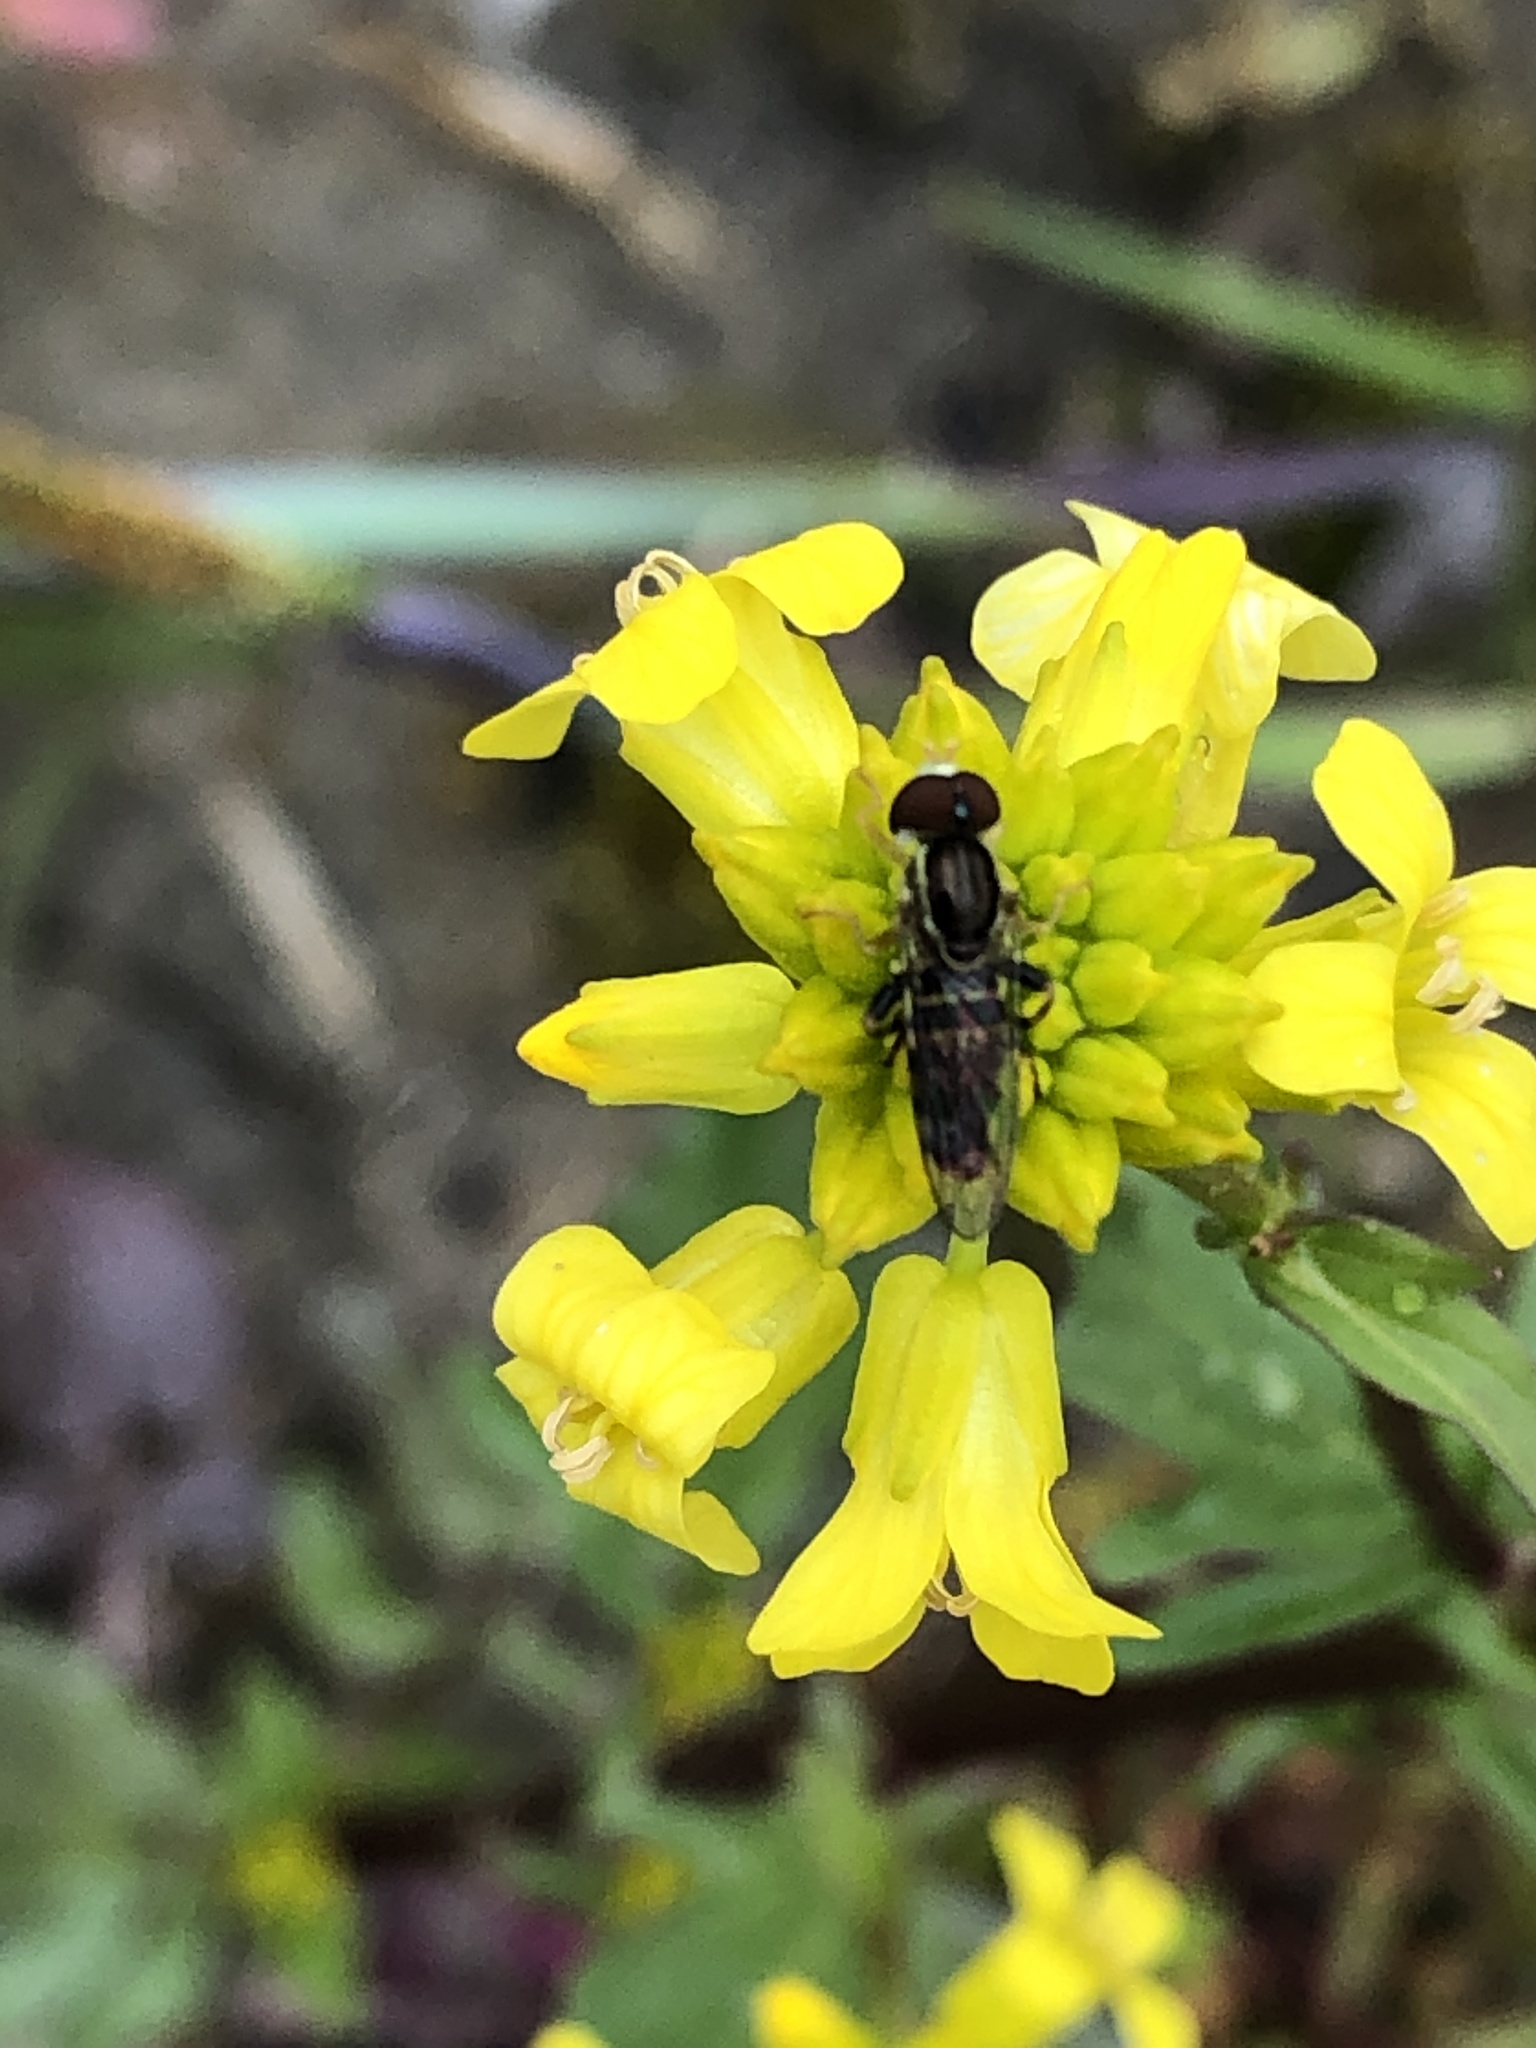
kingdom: Animalia
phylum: Arthropoda
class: Insecta
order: Diptera
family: Syrphidae
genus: Toxomerus
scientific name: Toxomerus geminatus
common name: Eastern calligrapher
